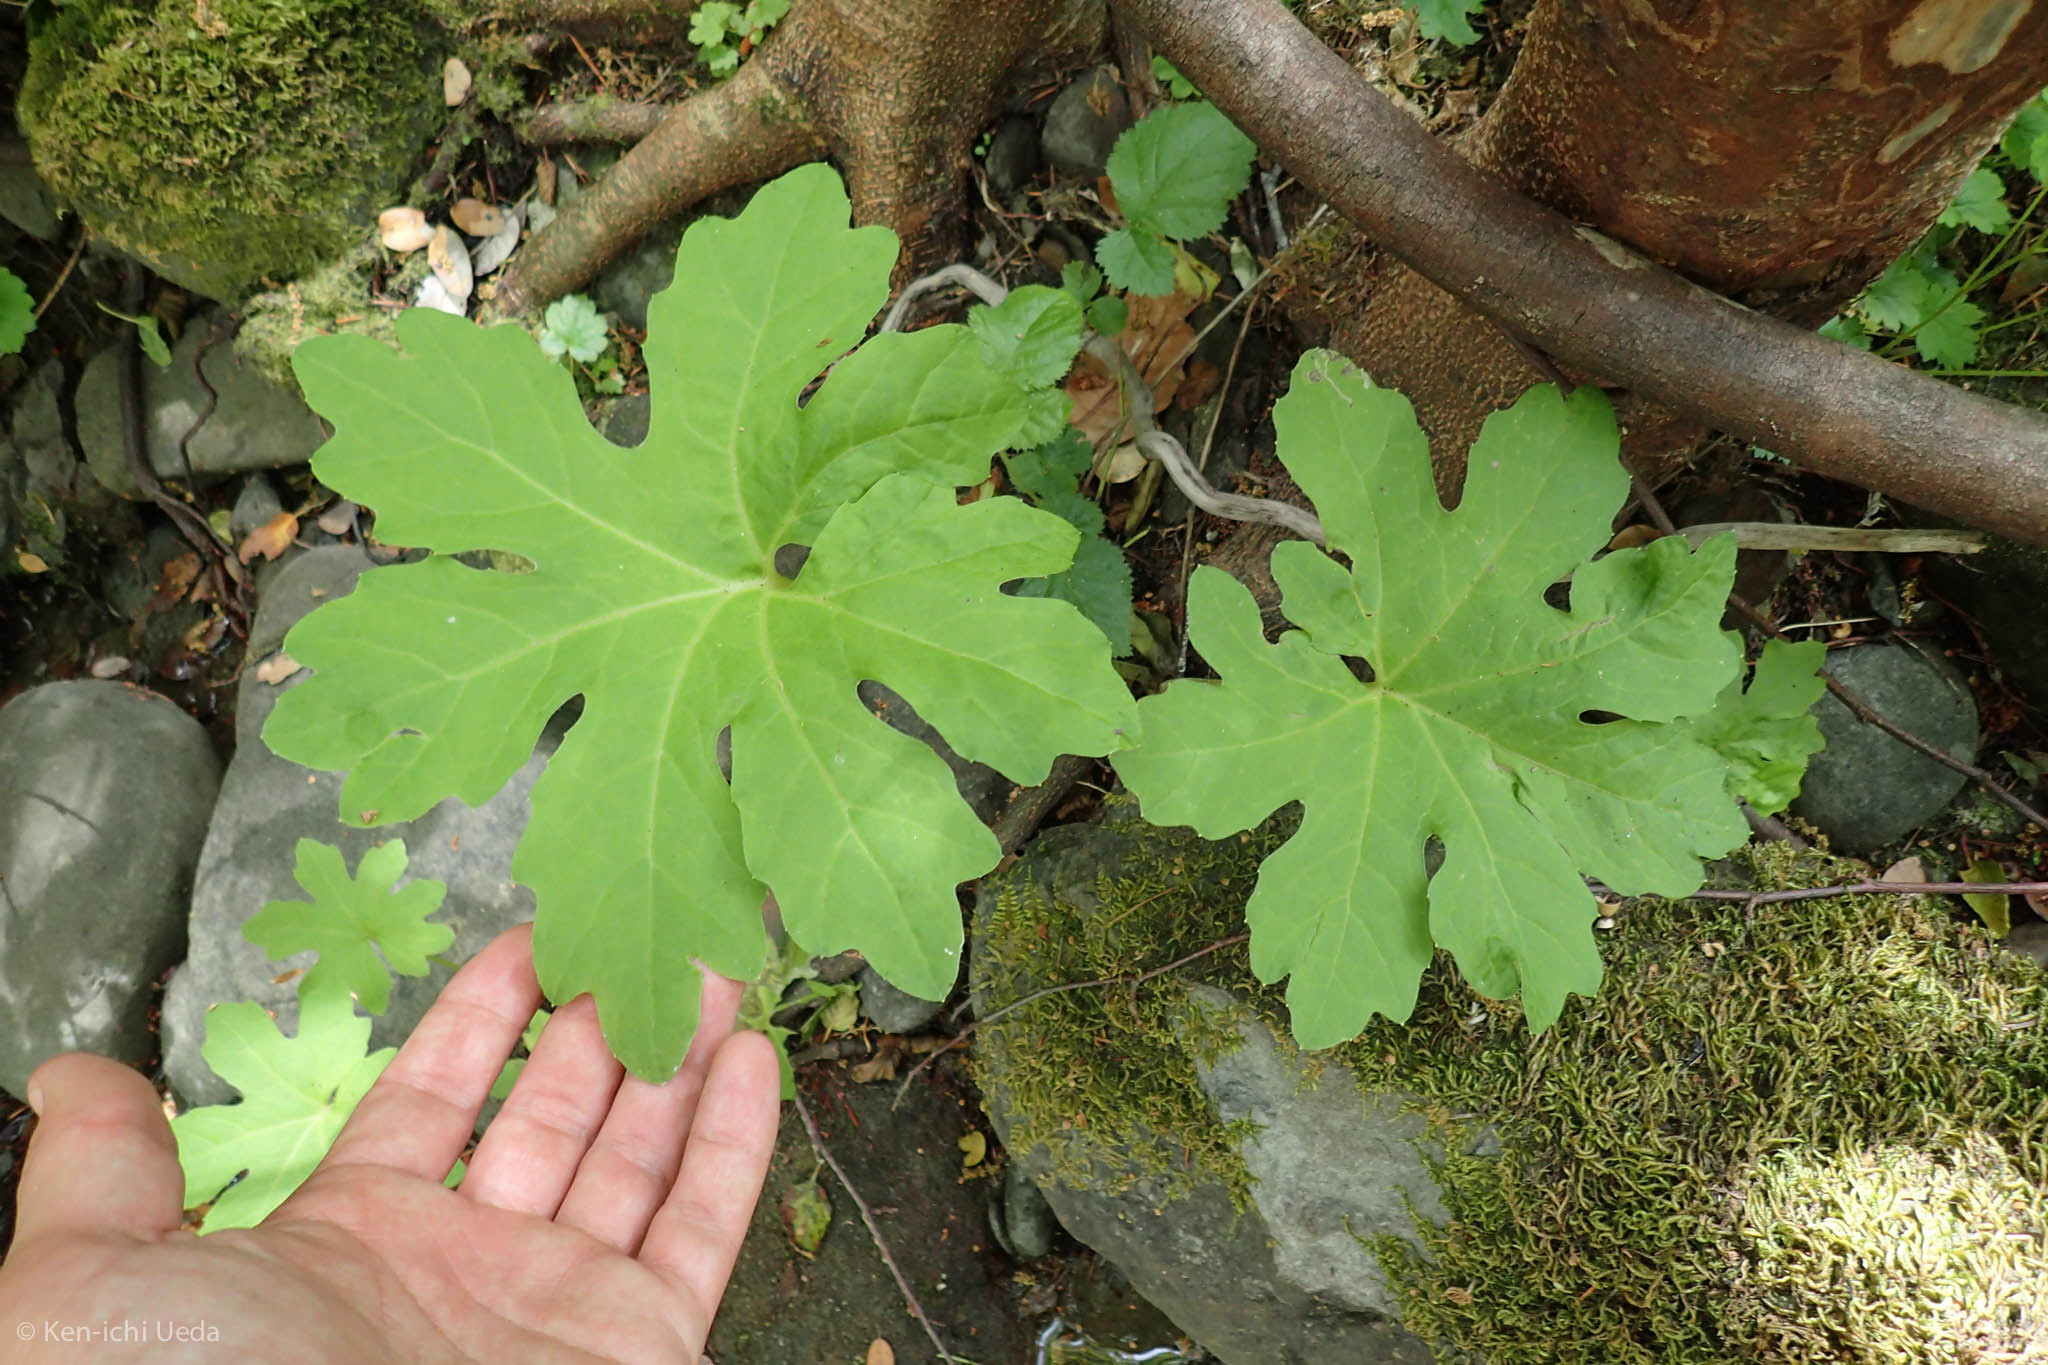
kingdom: Plantae
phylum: Tracheophyta
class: Magnoliopsida
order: Asterales
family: Asteraceae
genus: Petasites
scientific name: Petasites frigidus
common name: Arctic butterbur
